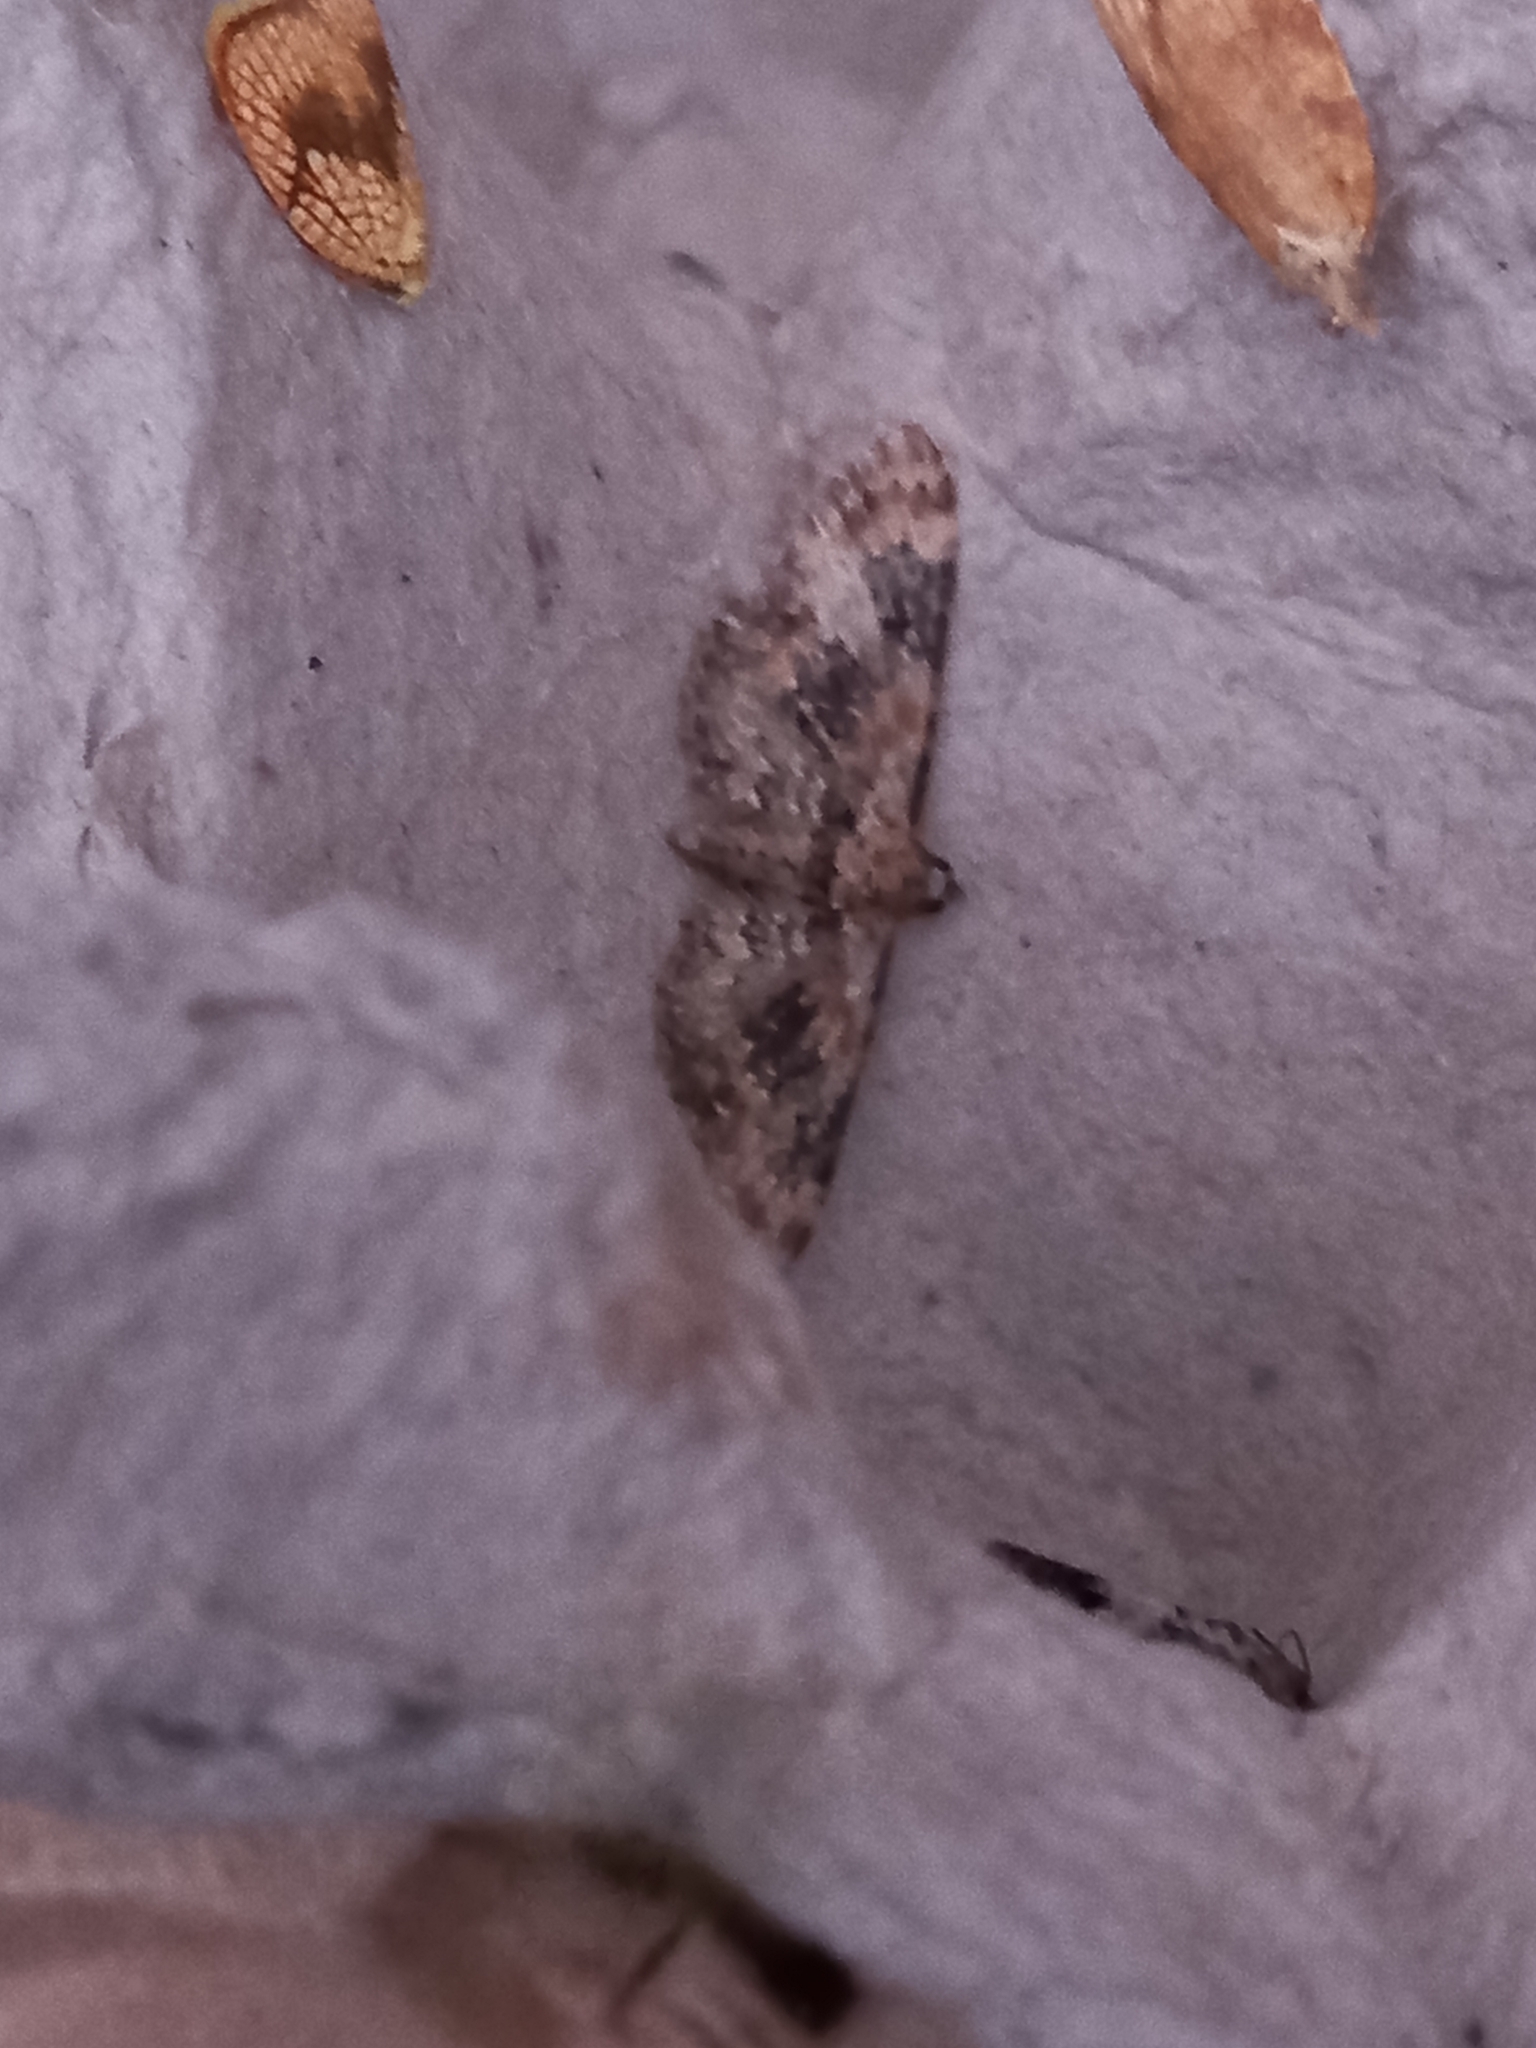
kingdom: Animalia
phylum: Arthropoda
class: Insecta
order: Lepidoptera
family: Geometridae
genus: Eupithecia
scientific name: Eupithecia pulchellata
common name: Foxglove pug
